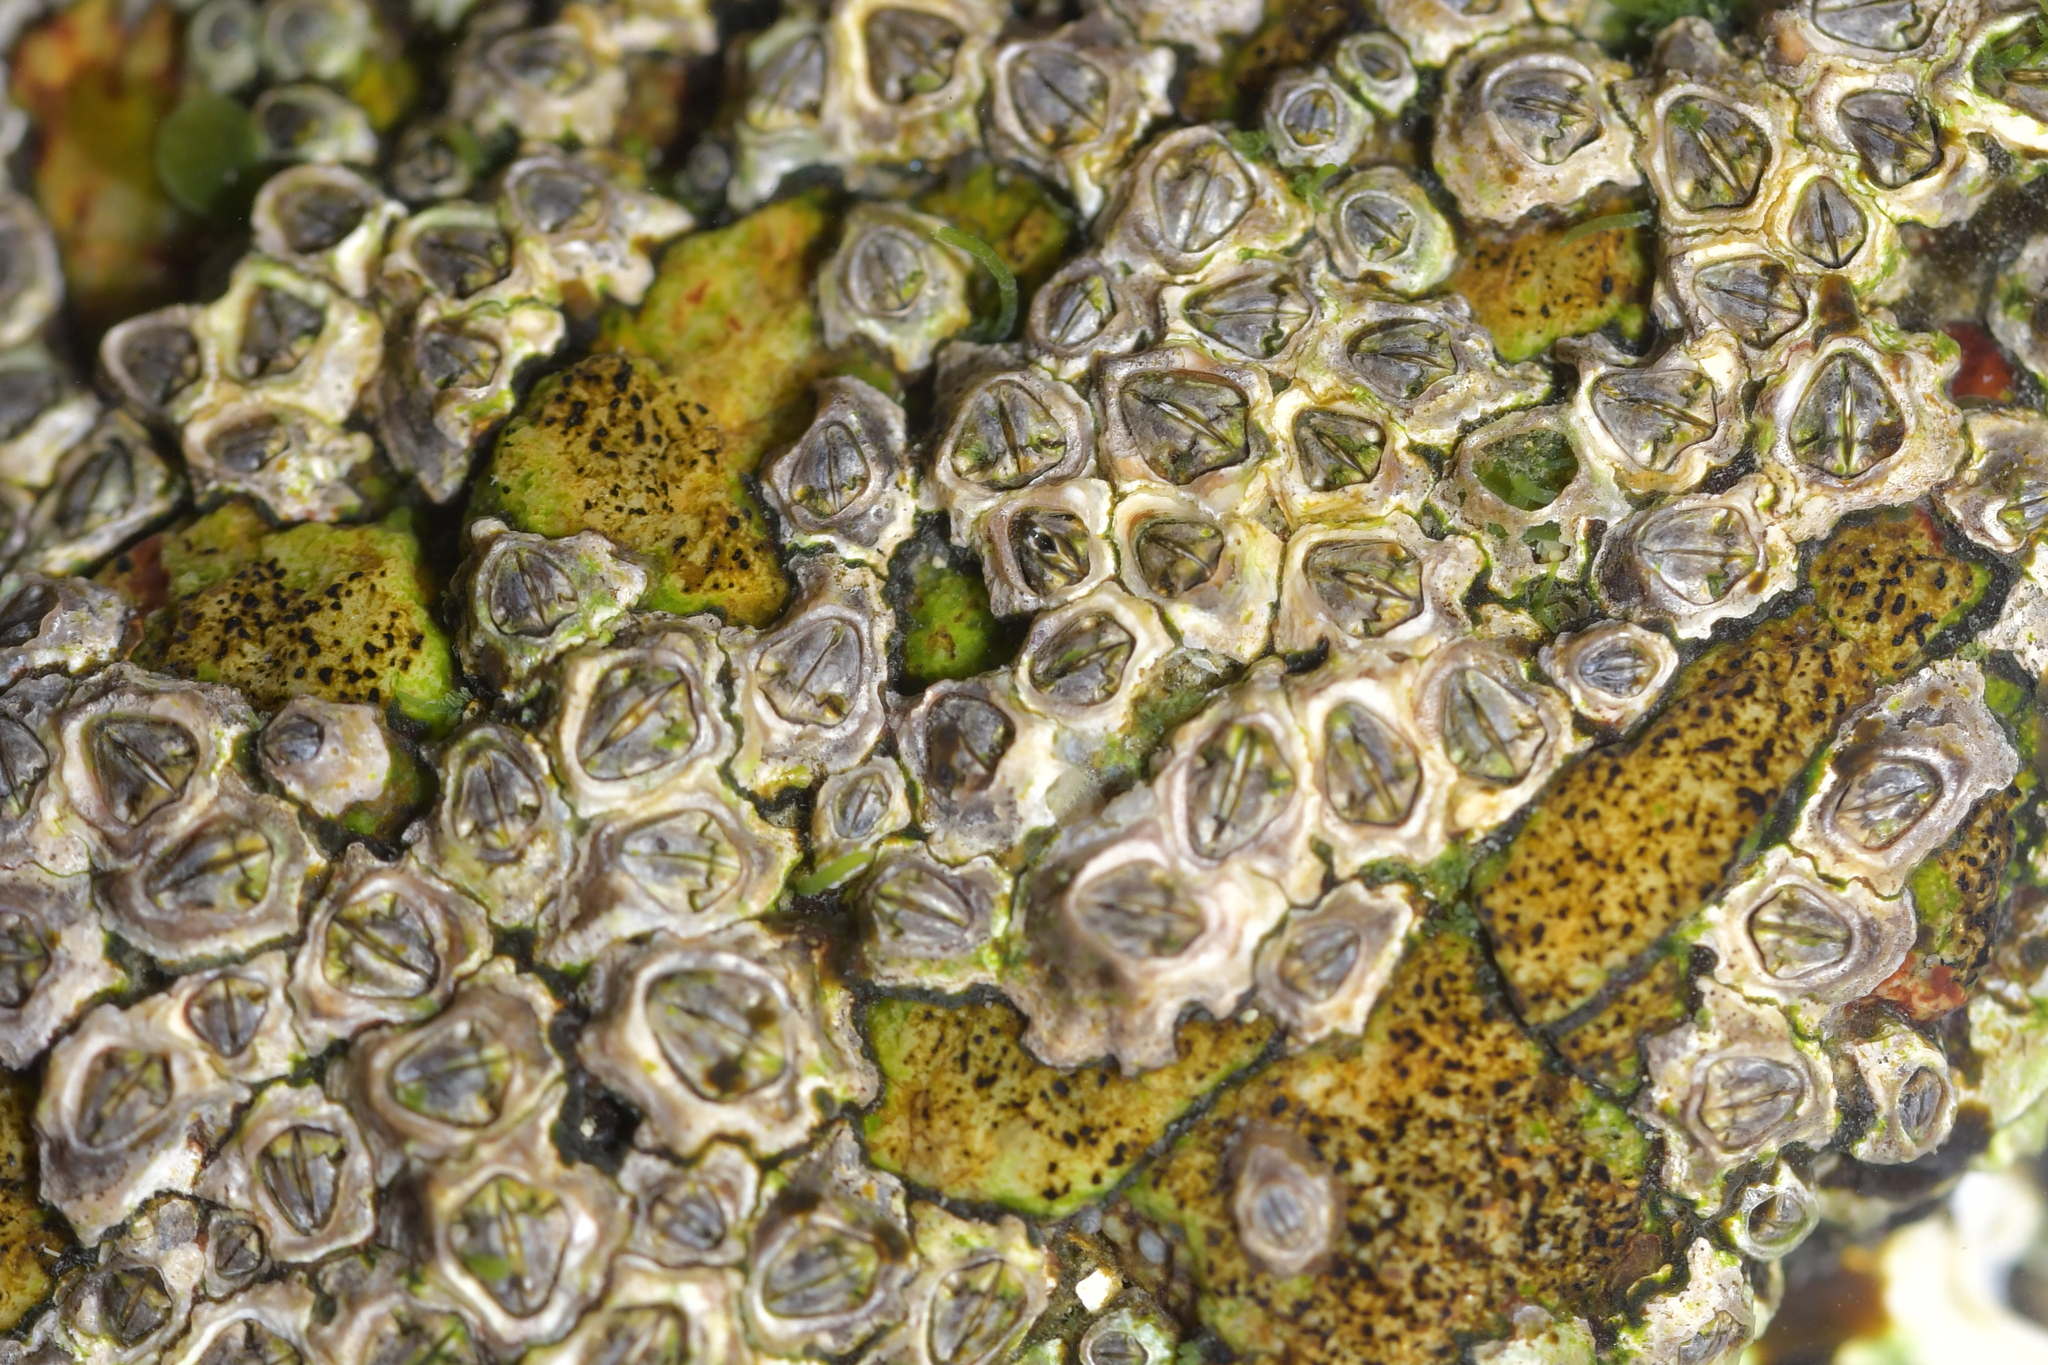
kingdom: Animalia
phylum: Arthropoda
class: Maxillopoda
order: Sessilia
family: Chthamalidae
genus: Chamaesipho
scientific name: Chamaesipho columna
